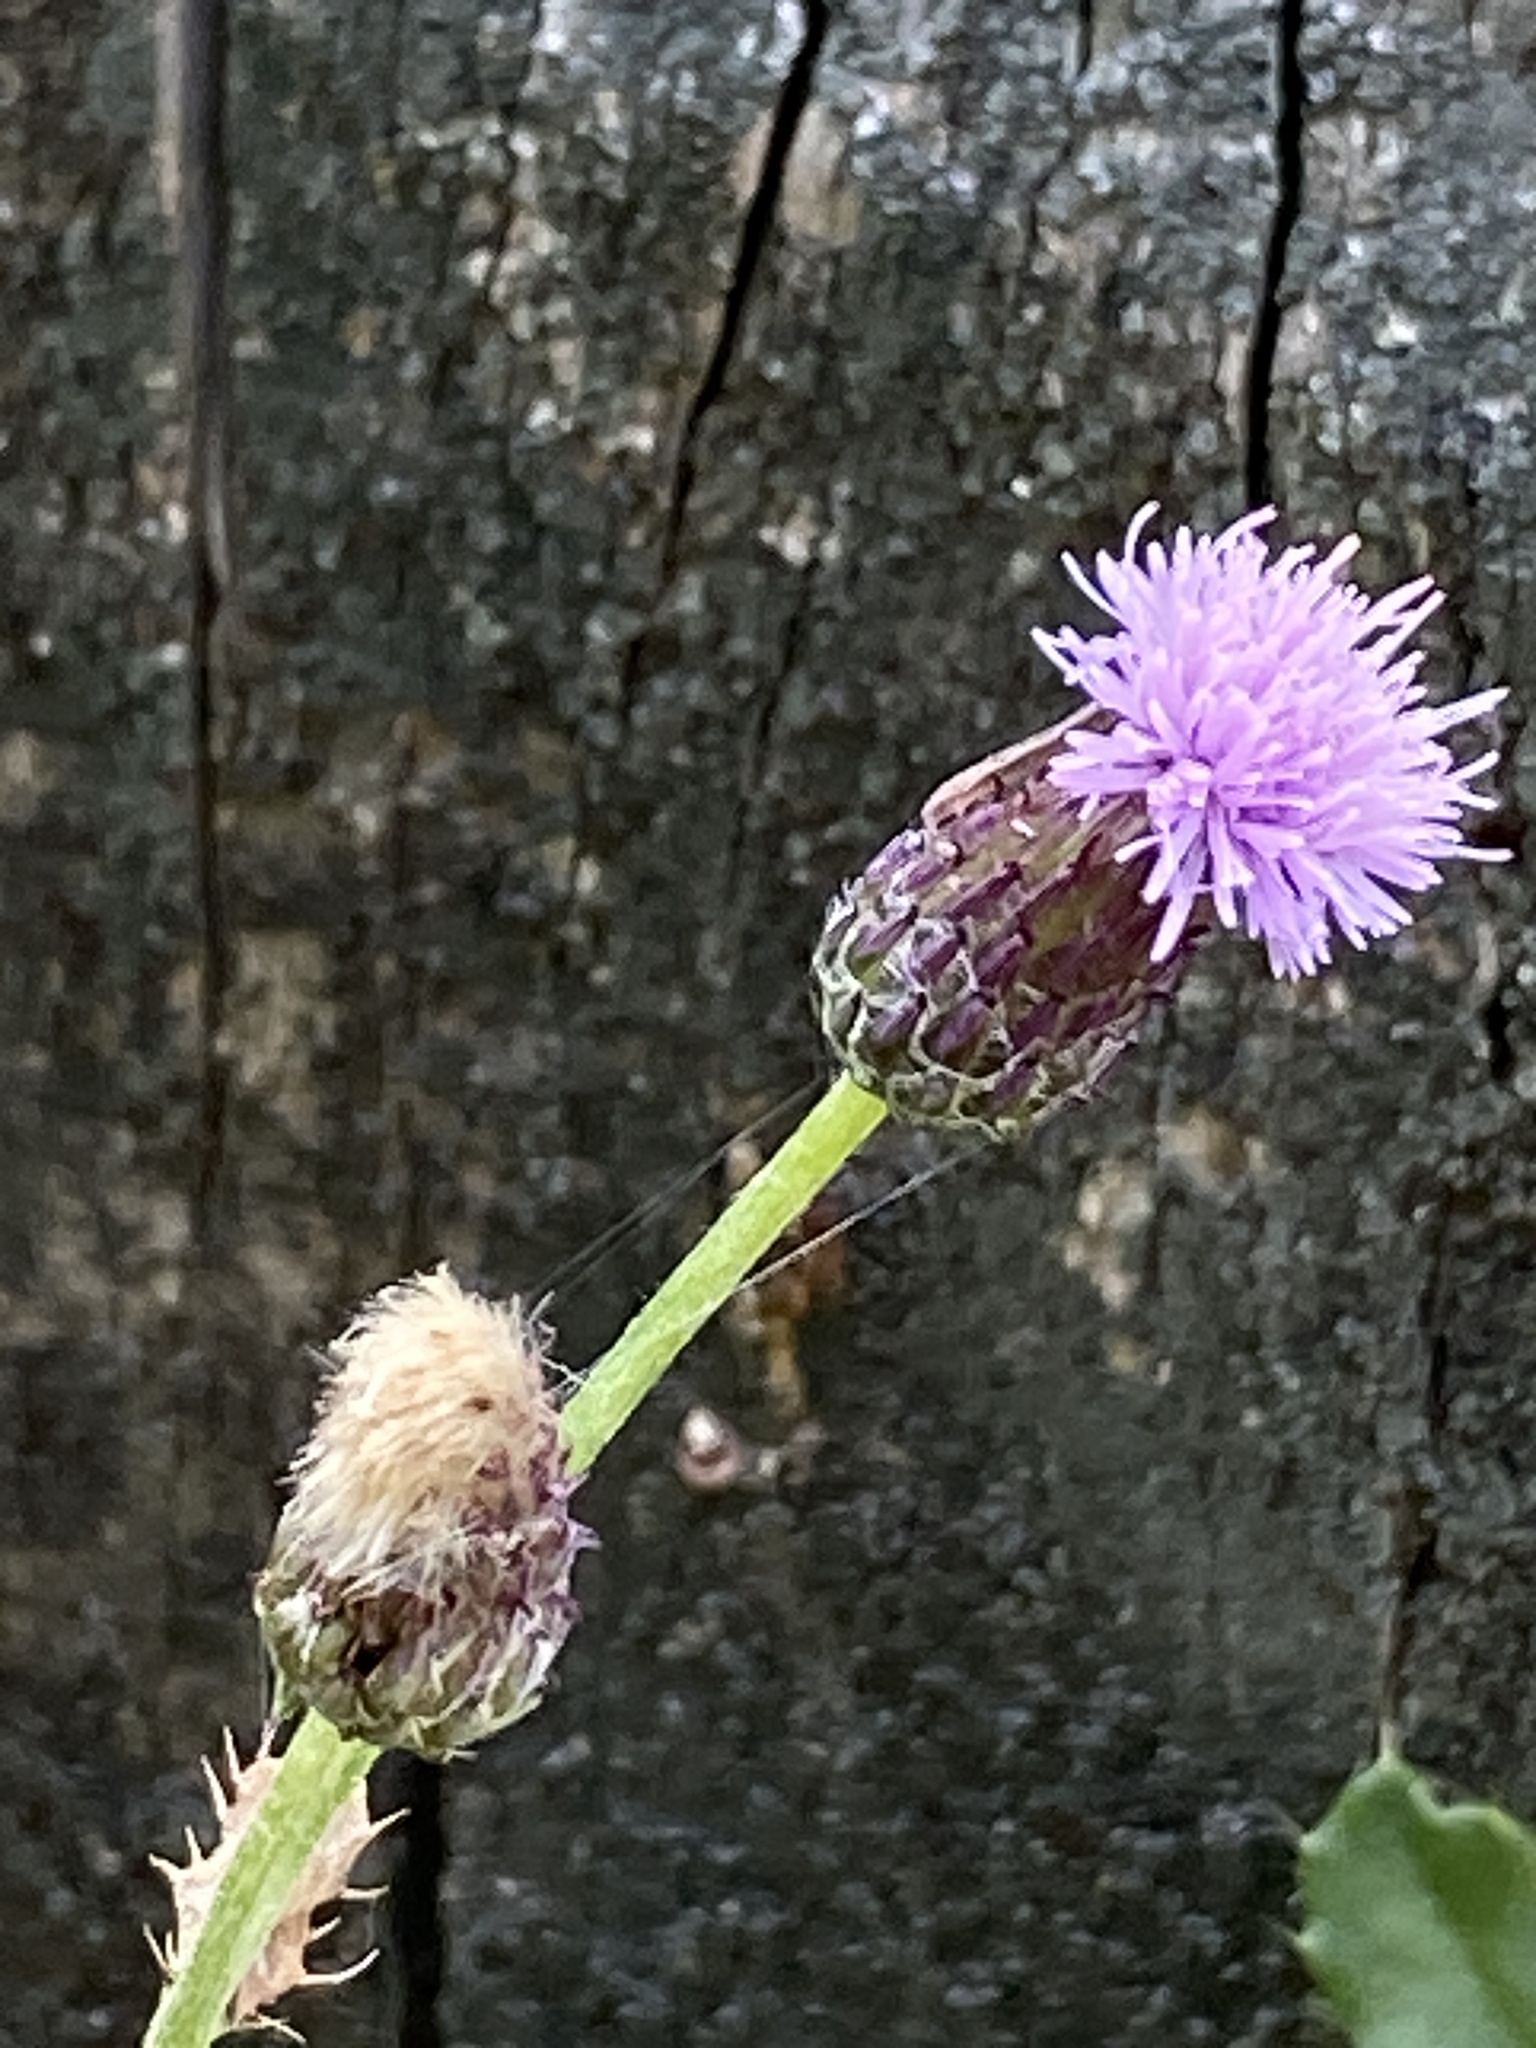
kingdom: Plantae
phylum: Tracheophyta
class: Magnoliopsida
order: Asterales
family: Asteraceae
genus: Cirsium
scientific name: Cirsium arvense
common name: Creeping thistle
